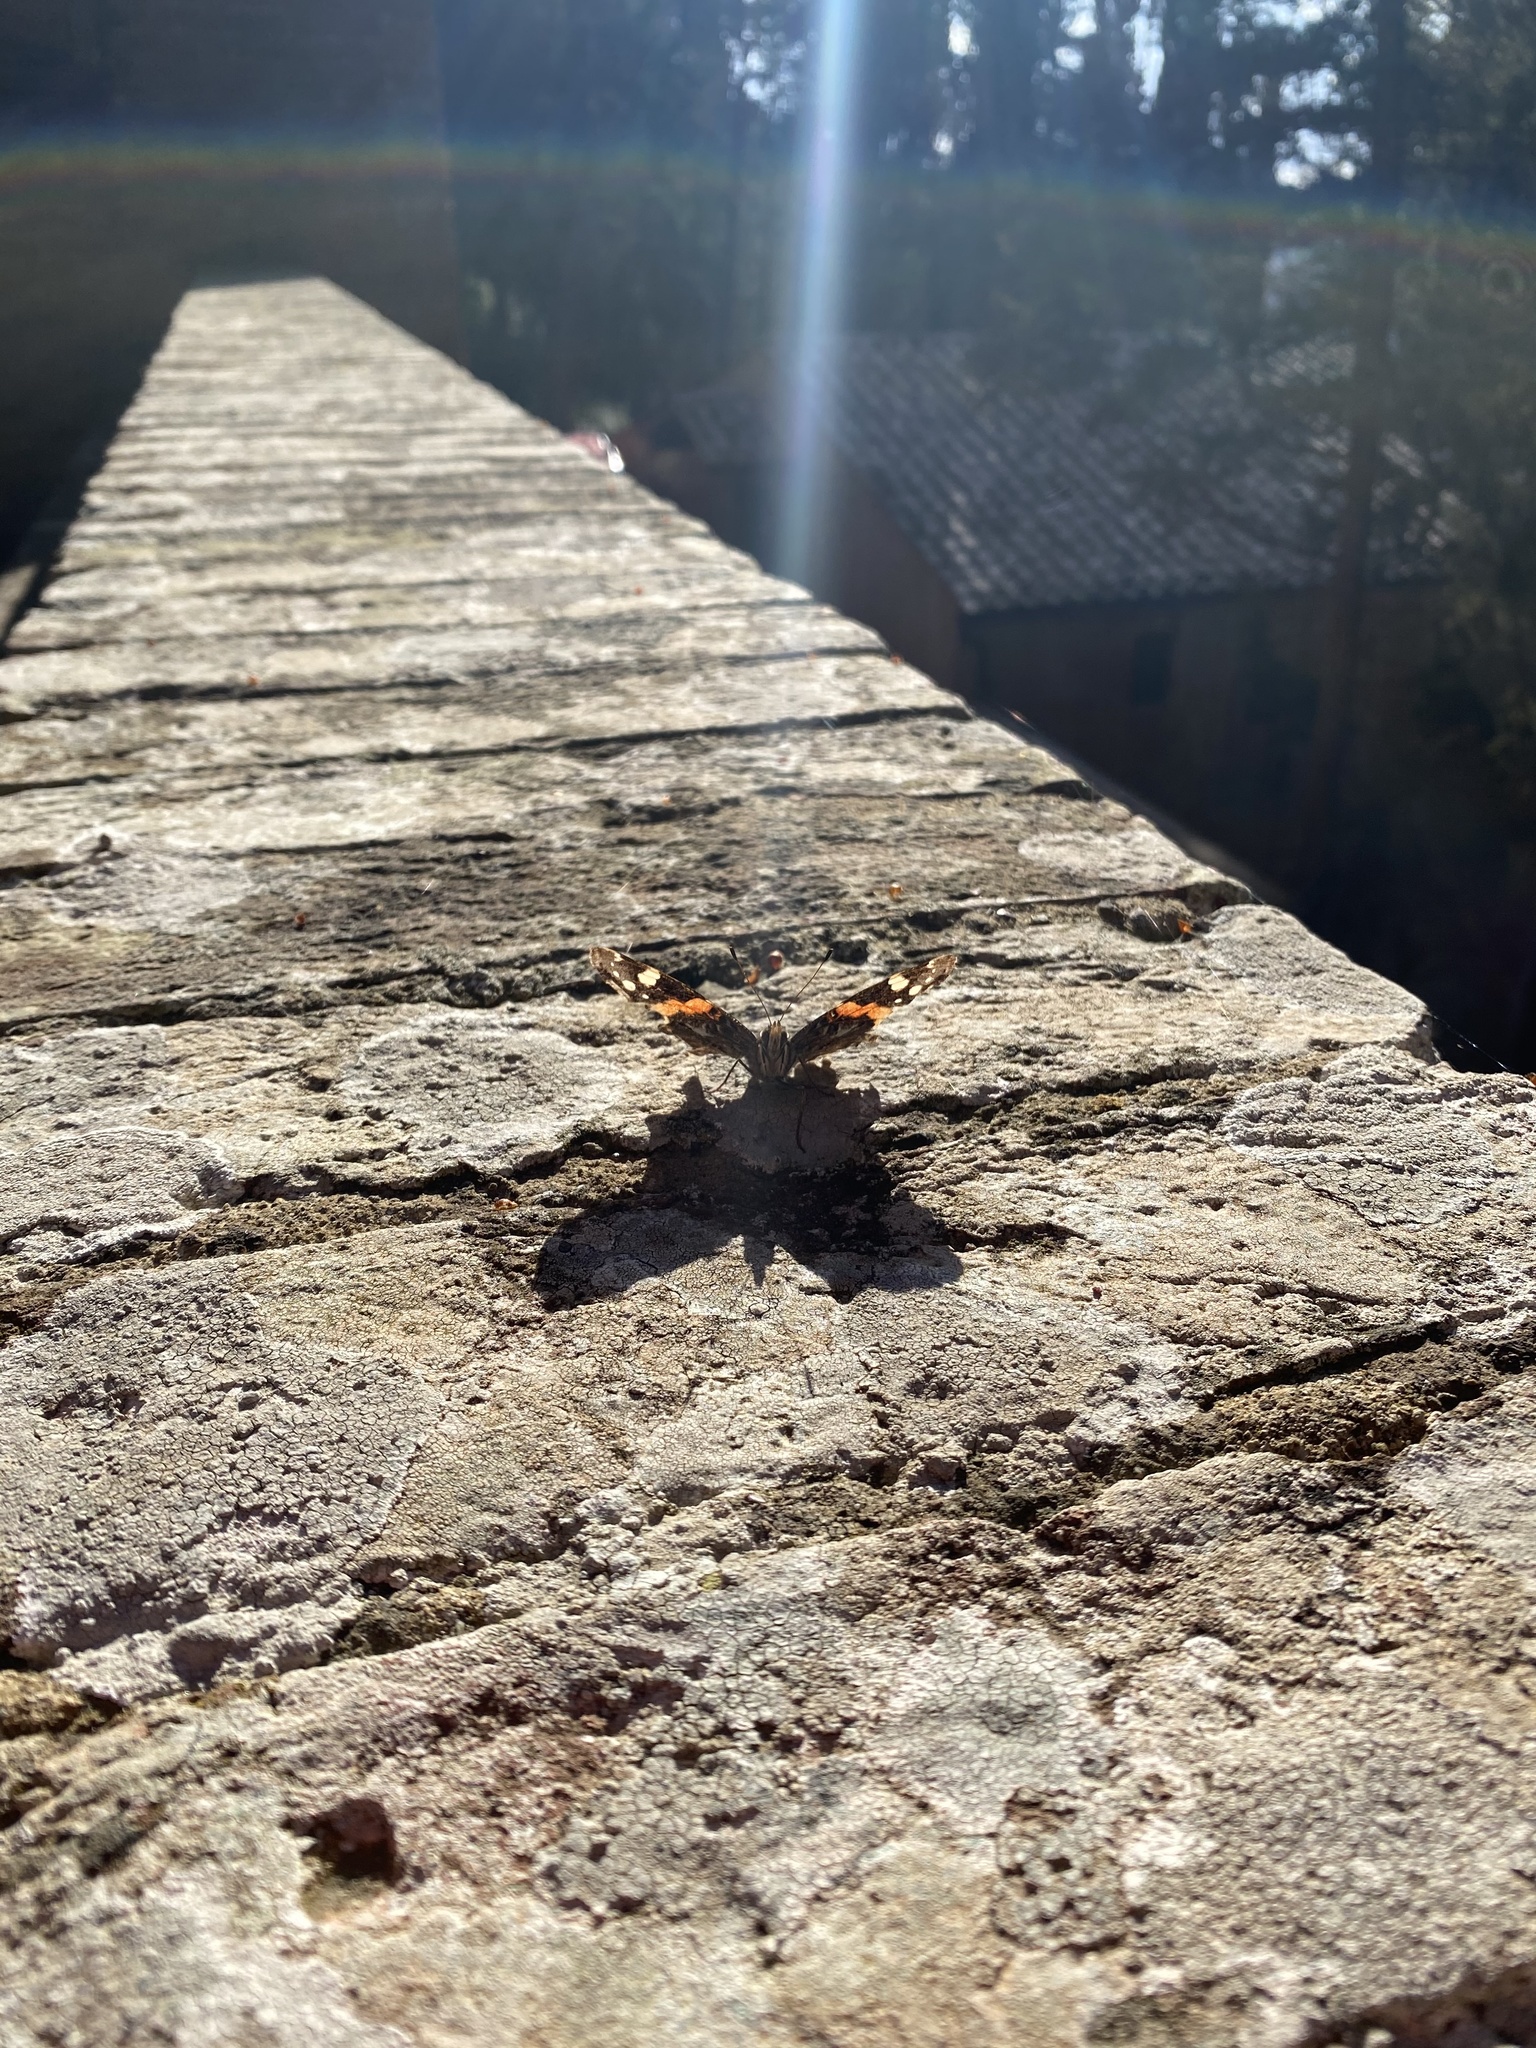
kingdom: Animalia
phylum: Arthropoda
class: Insecta
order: Lepidoptera
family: Nymphalidae
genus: Vanessa
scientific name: Vanessa atalanta
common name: Red admiral
